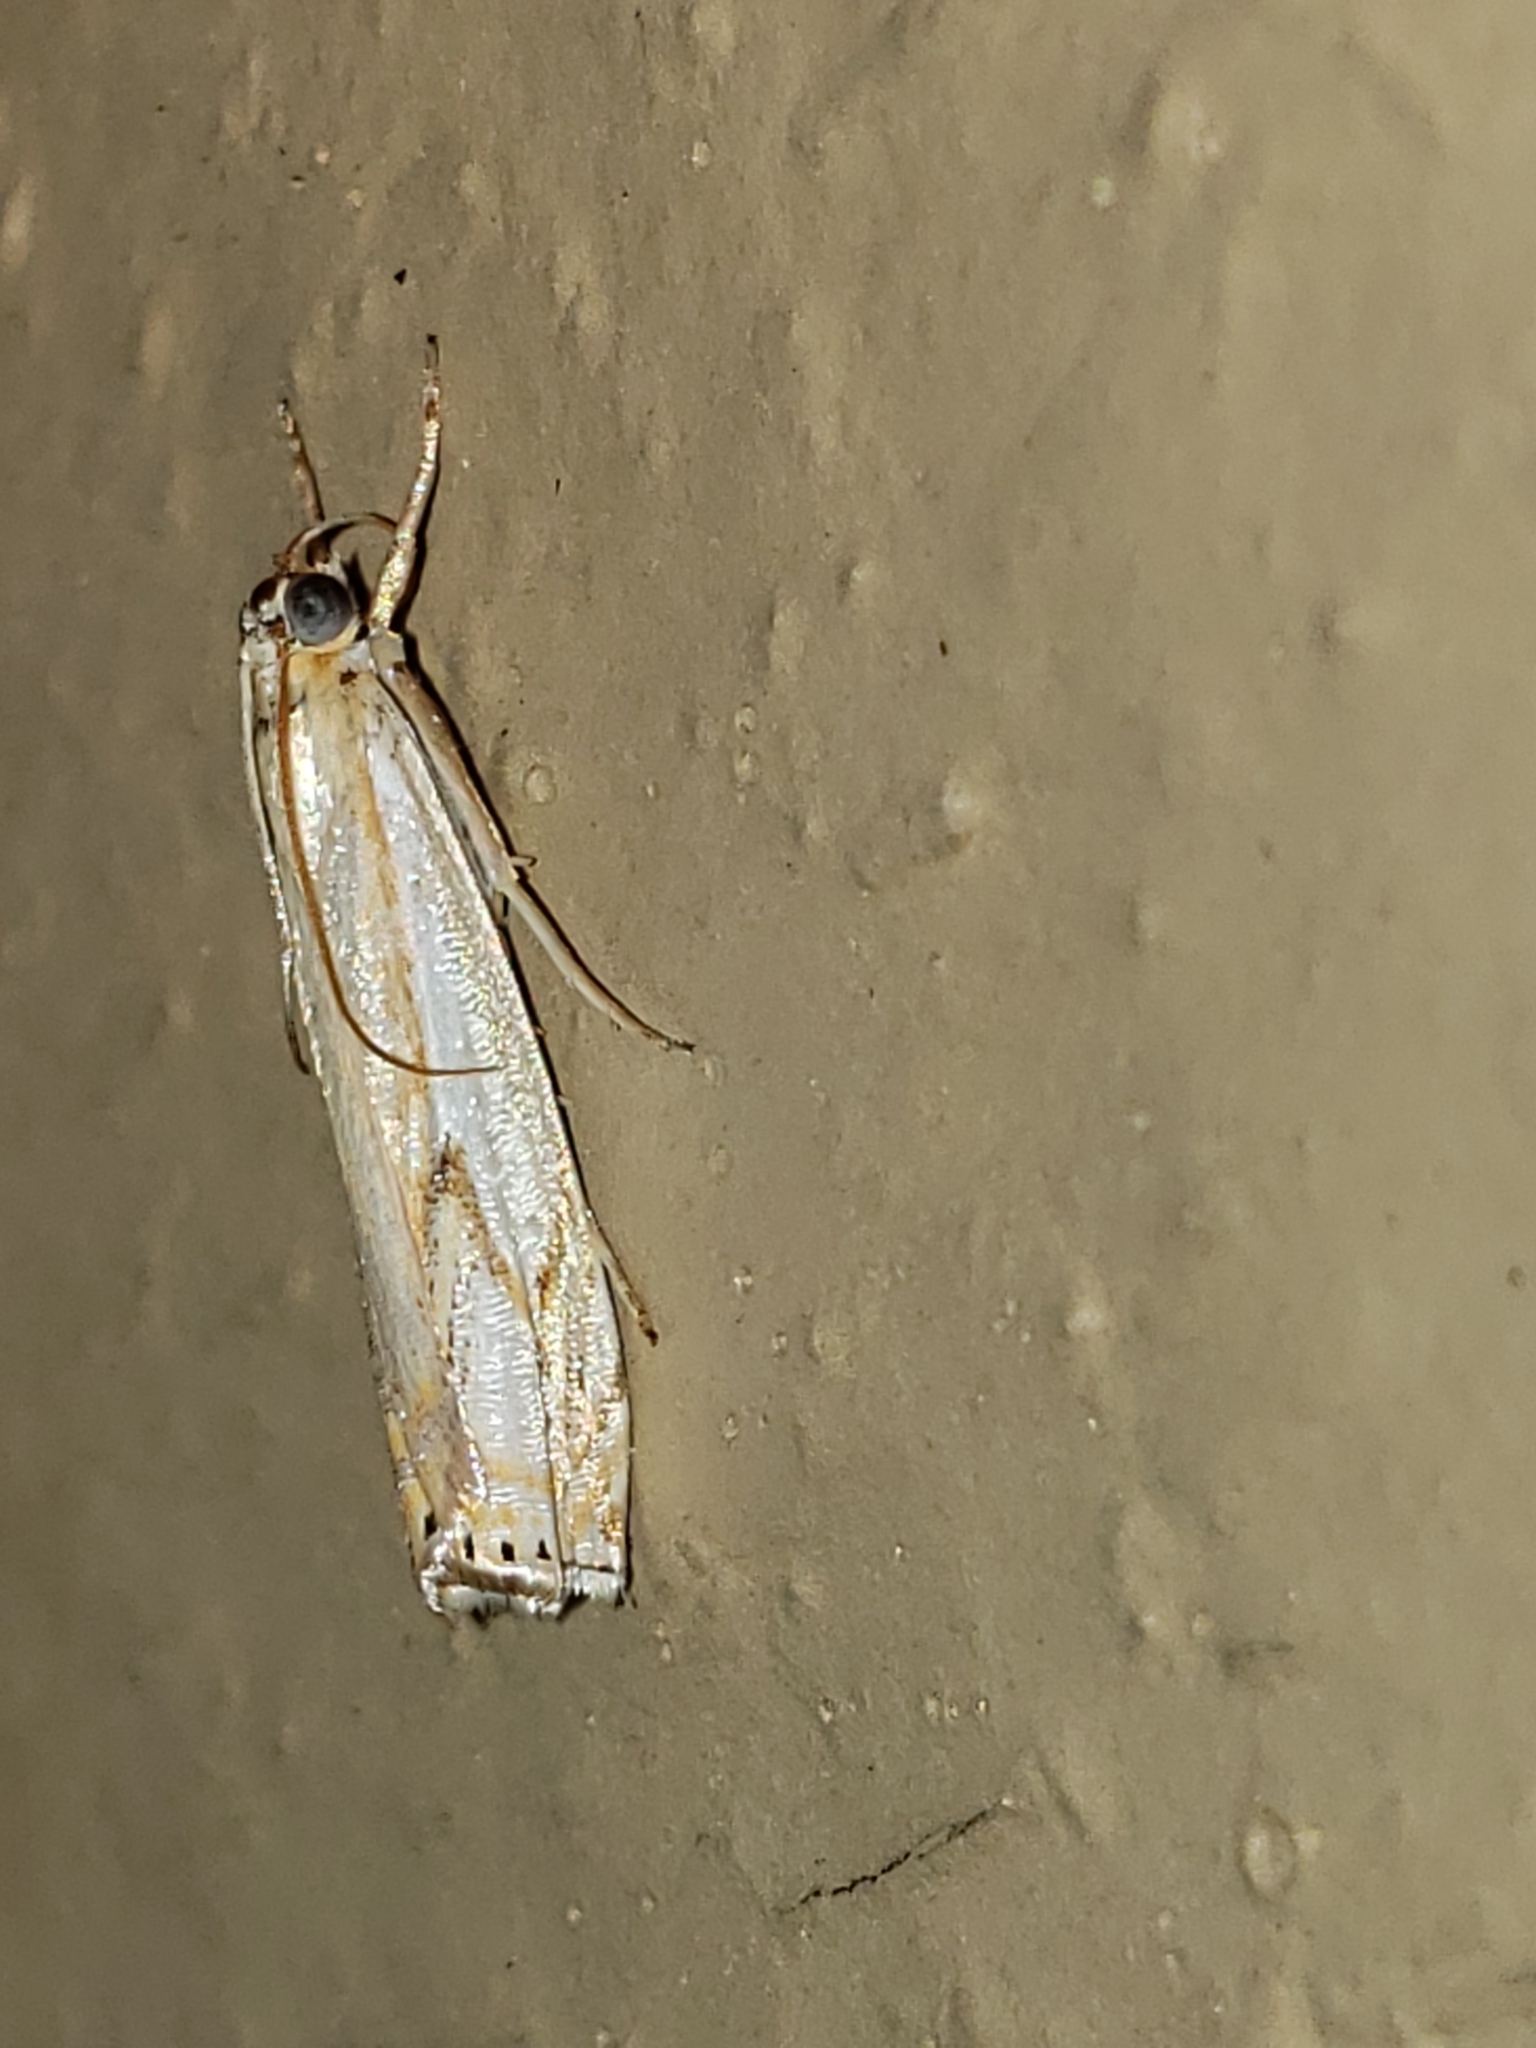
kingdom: Animalia
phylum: Arthropoda
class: Insecta
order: Lepidoptera
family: Crambidae
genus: Crambus
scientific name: Crambus agitatellus
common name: Double-banded grass-veneer
